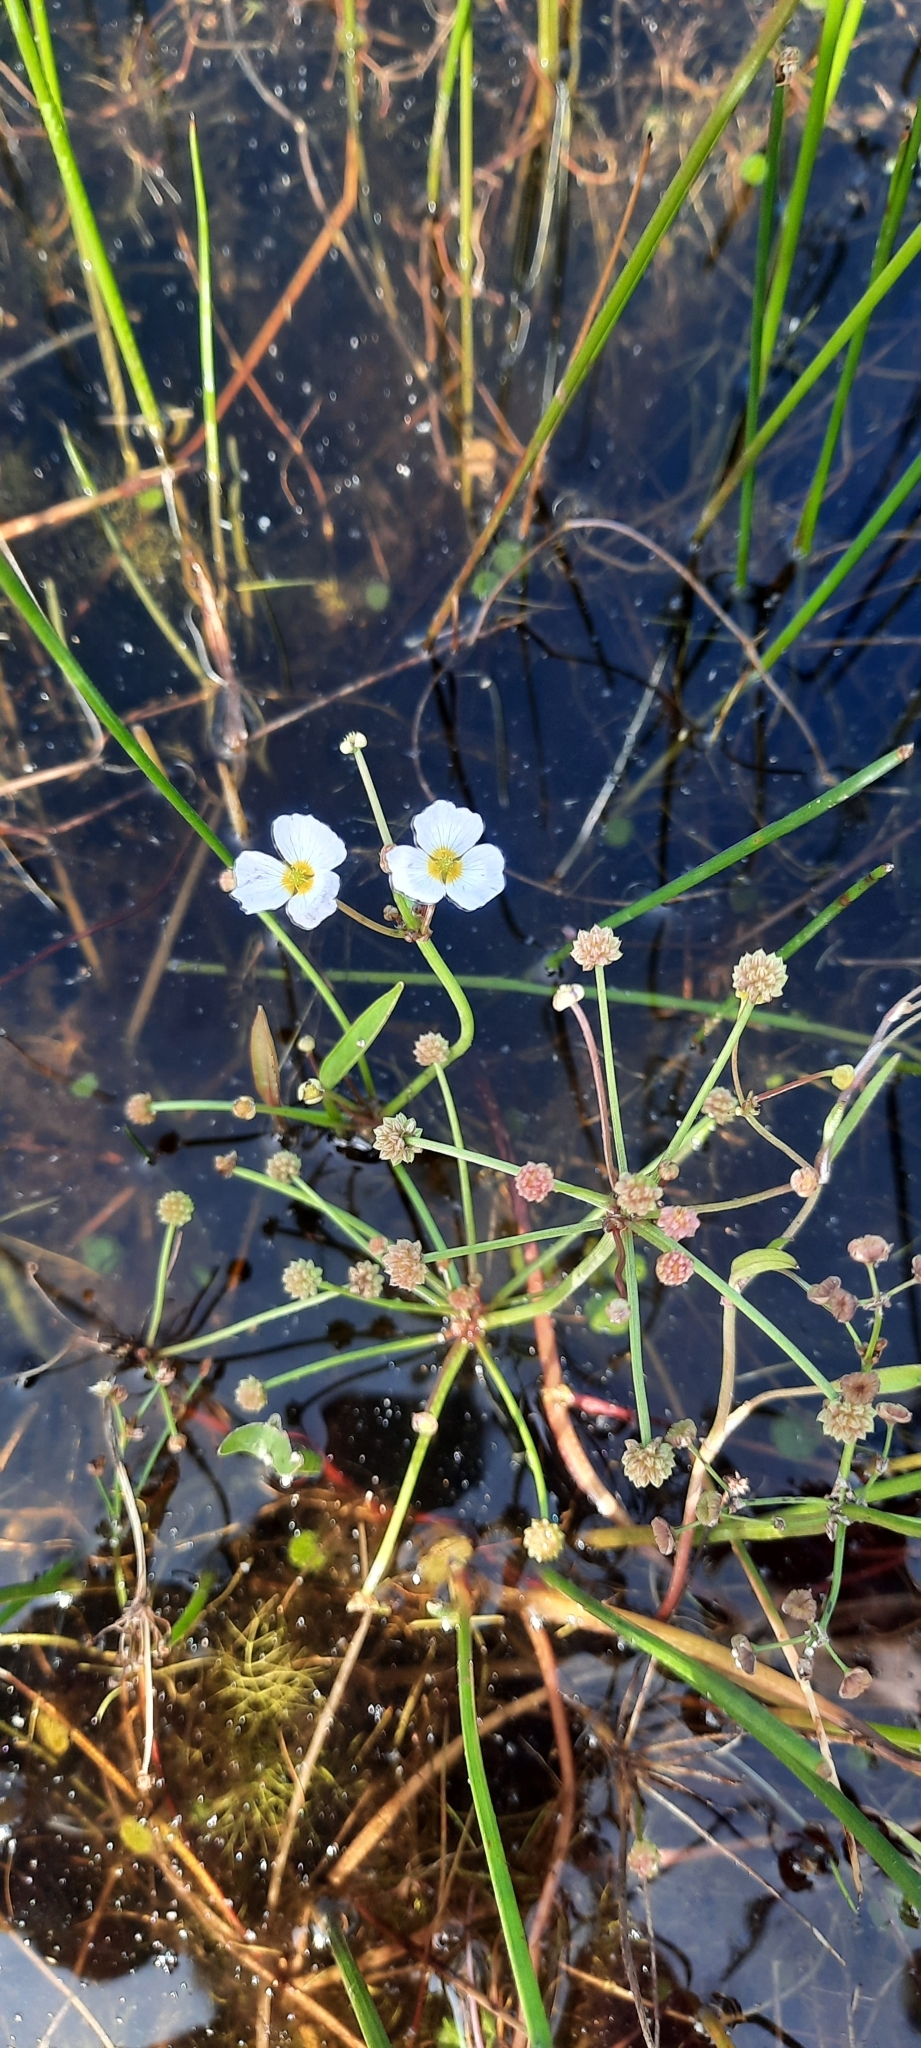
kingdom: Plantae
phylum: Tracheophyta
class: Liliopsida
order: Alismatales
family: Alismataceae
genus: Baldellia
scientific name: Baldellia ranunculoides
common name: Lesser water-plantain
